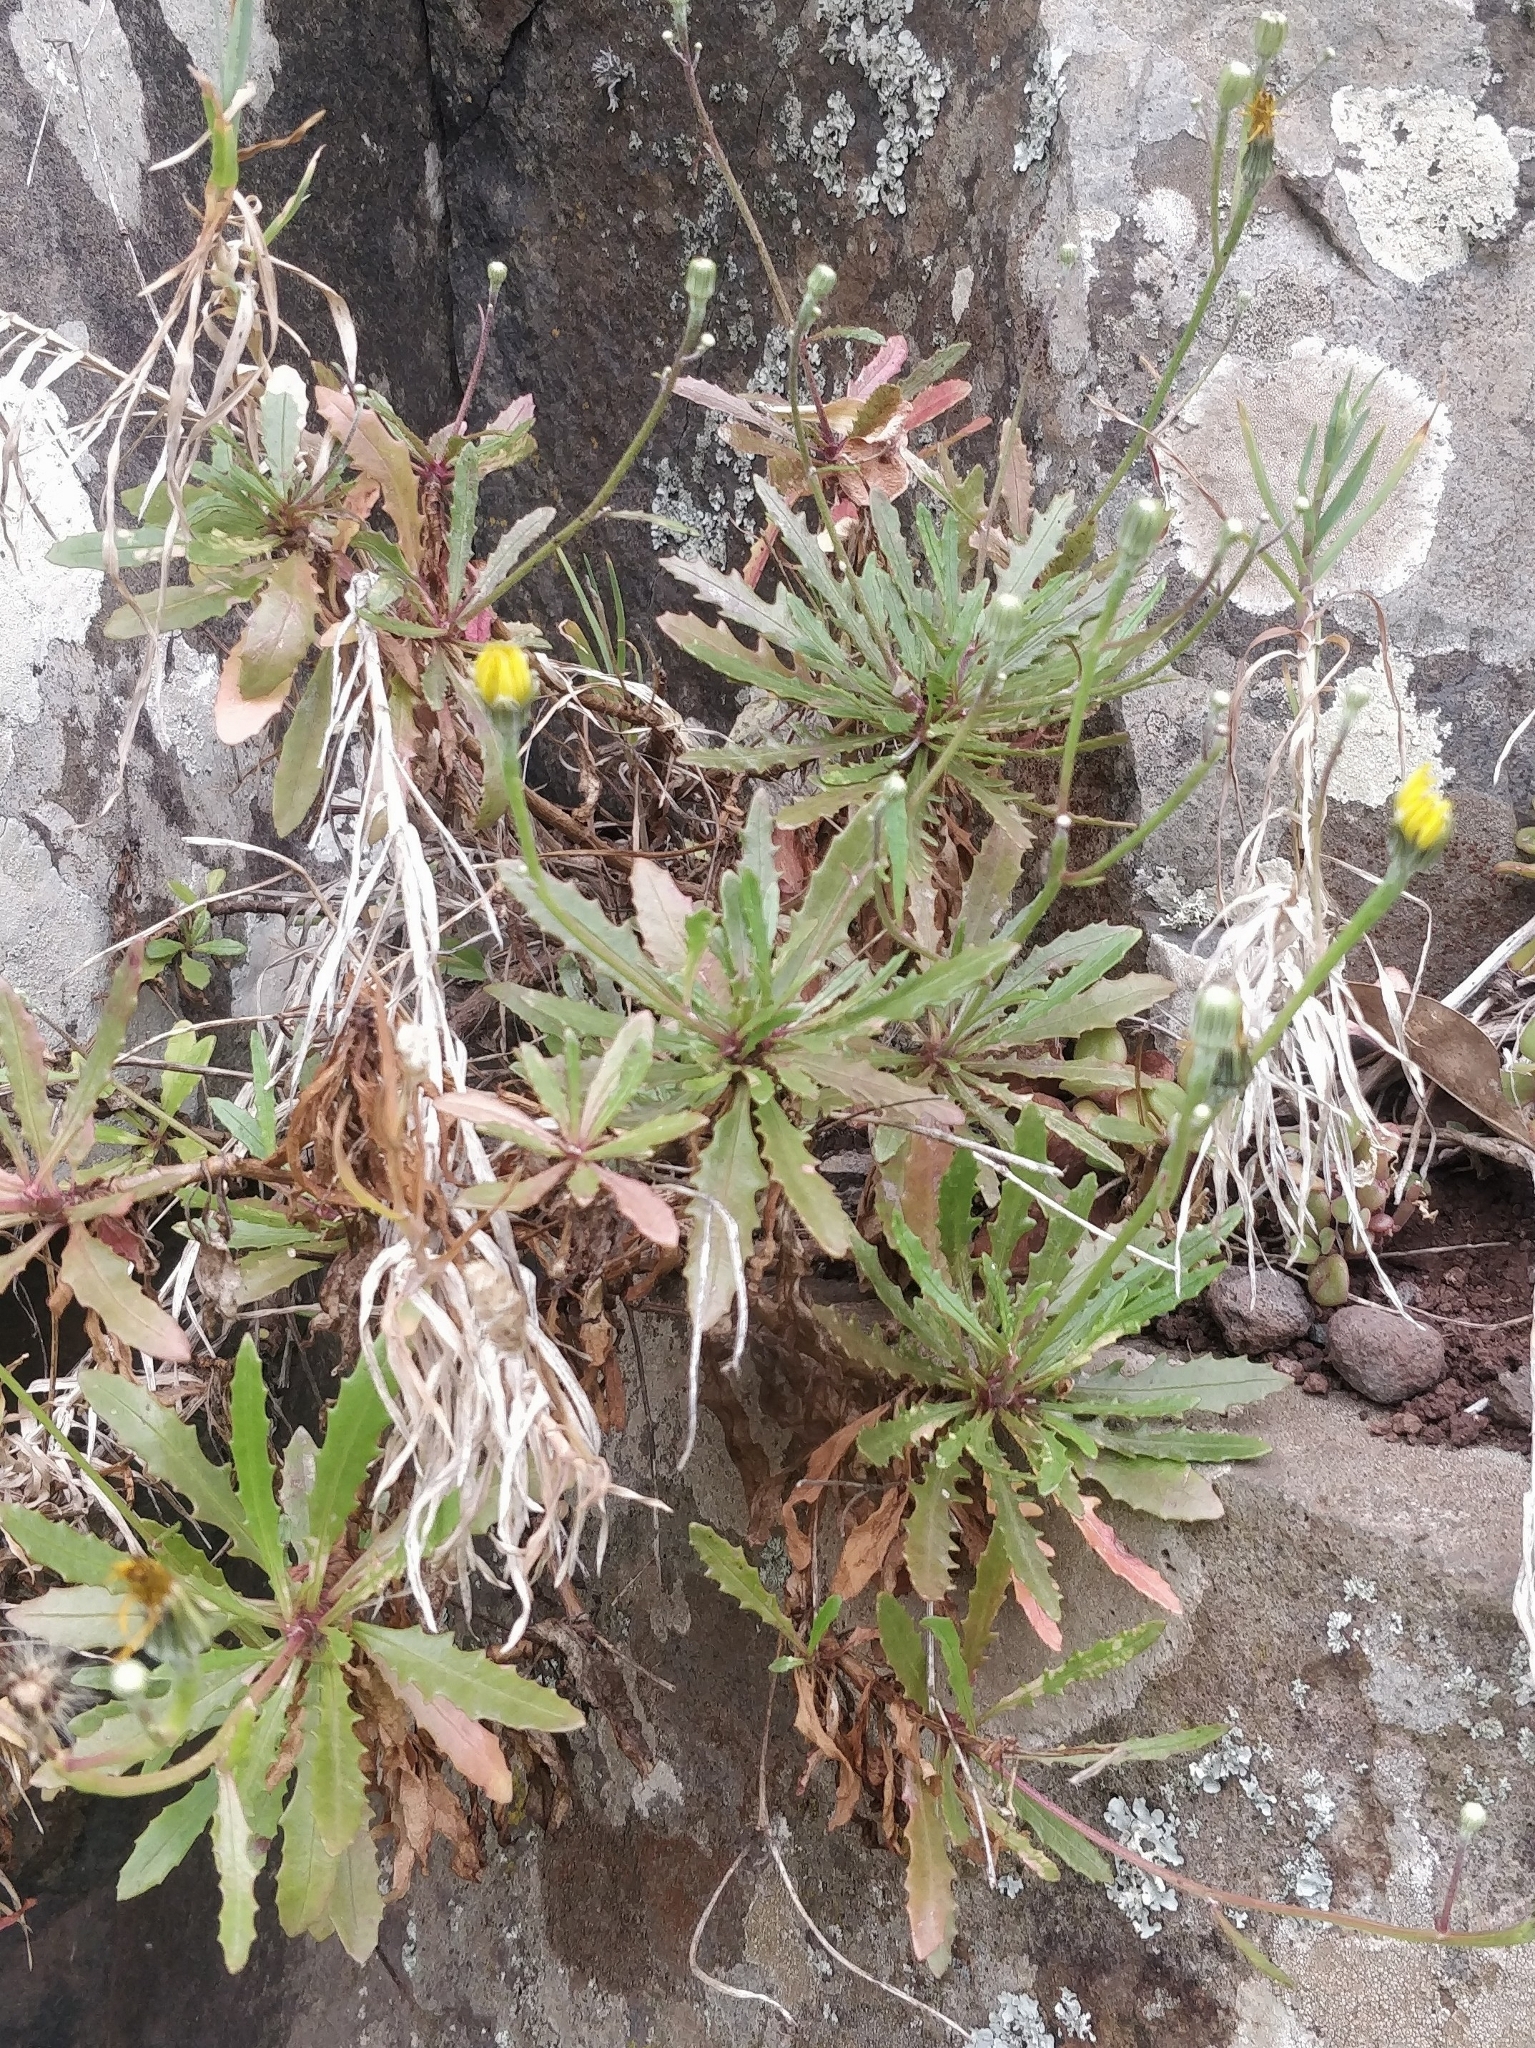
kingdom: Plantae
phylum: Tracheophyta
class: Magnoliopsida
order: Asterales
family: Asteraceae
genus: Tolpis
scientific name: Tolpis succulenta
